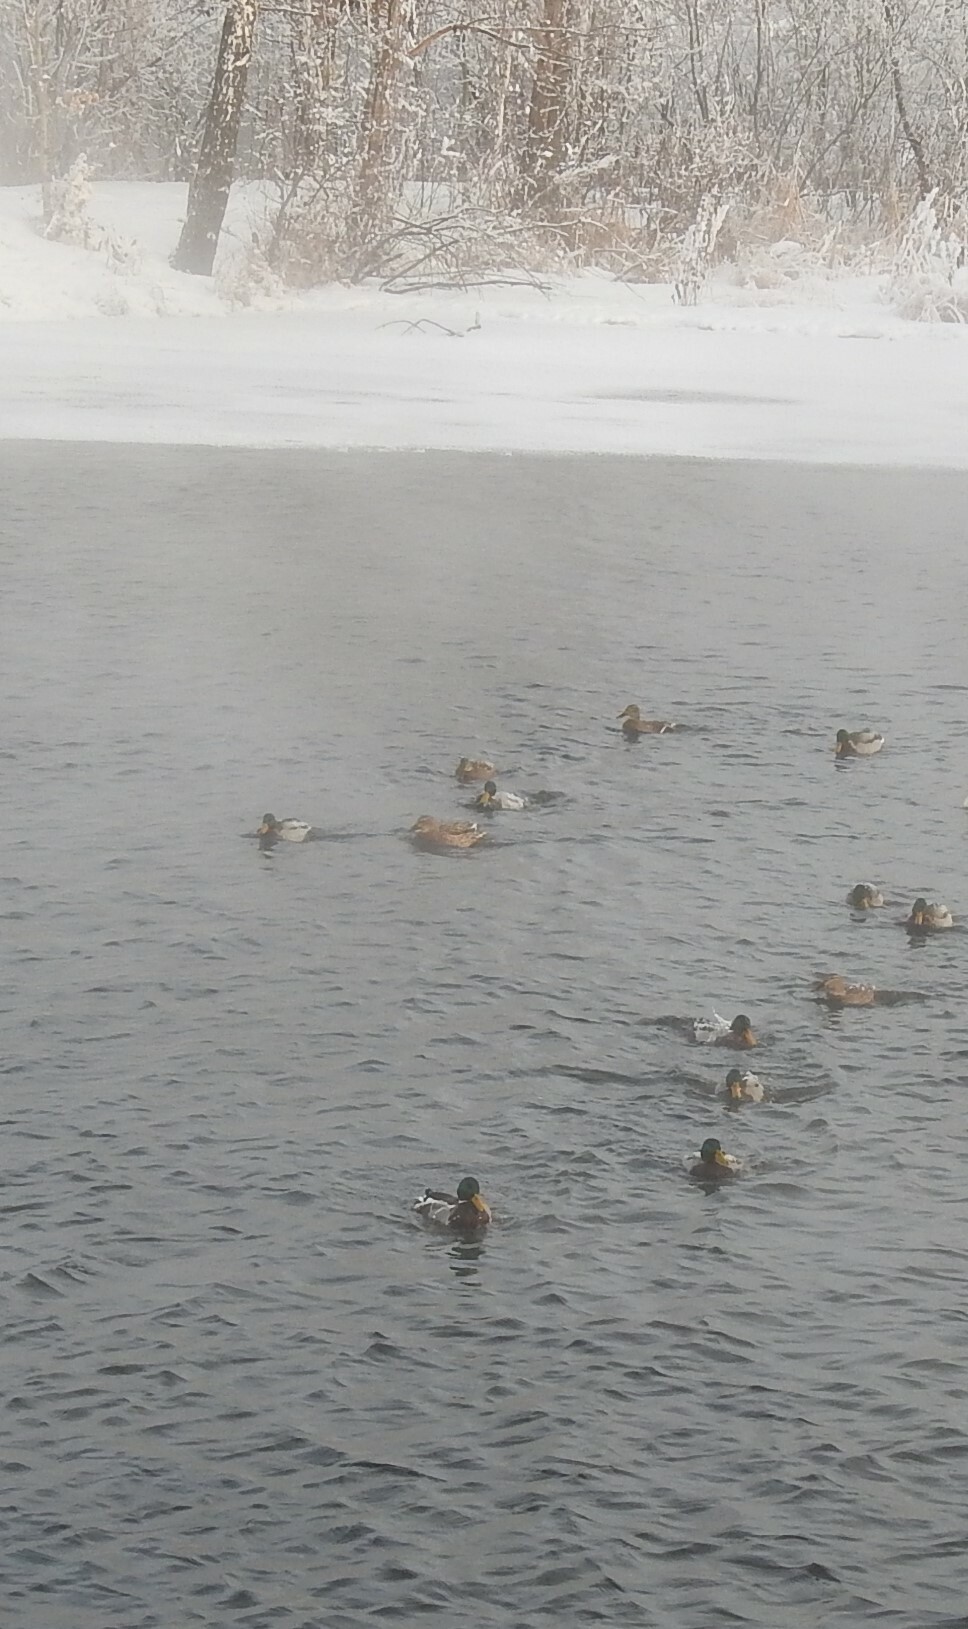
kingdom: Animalia
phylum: Chordata
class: Aves
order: Anseriformes
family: Anatidae
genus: Anas
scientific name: Anas platyrhynchos
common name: Mallard
